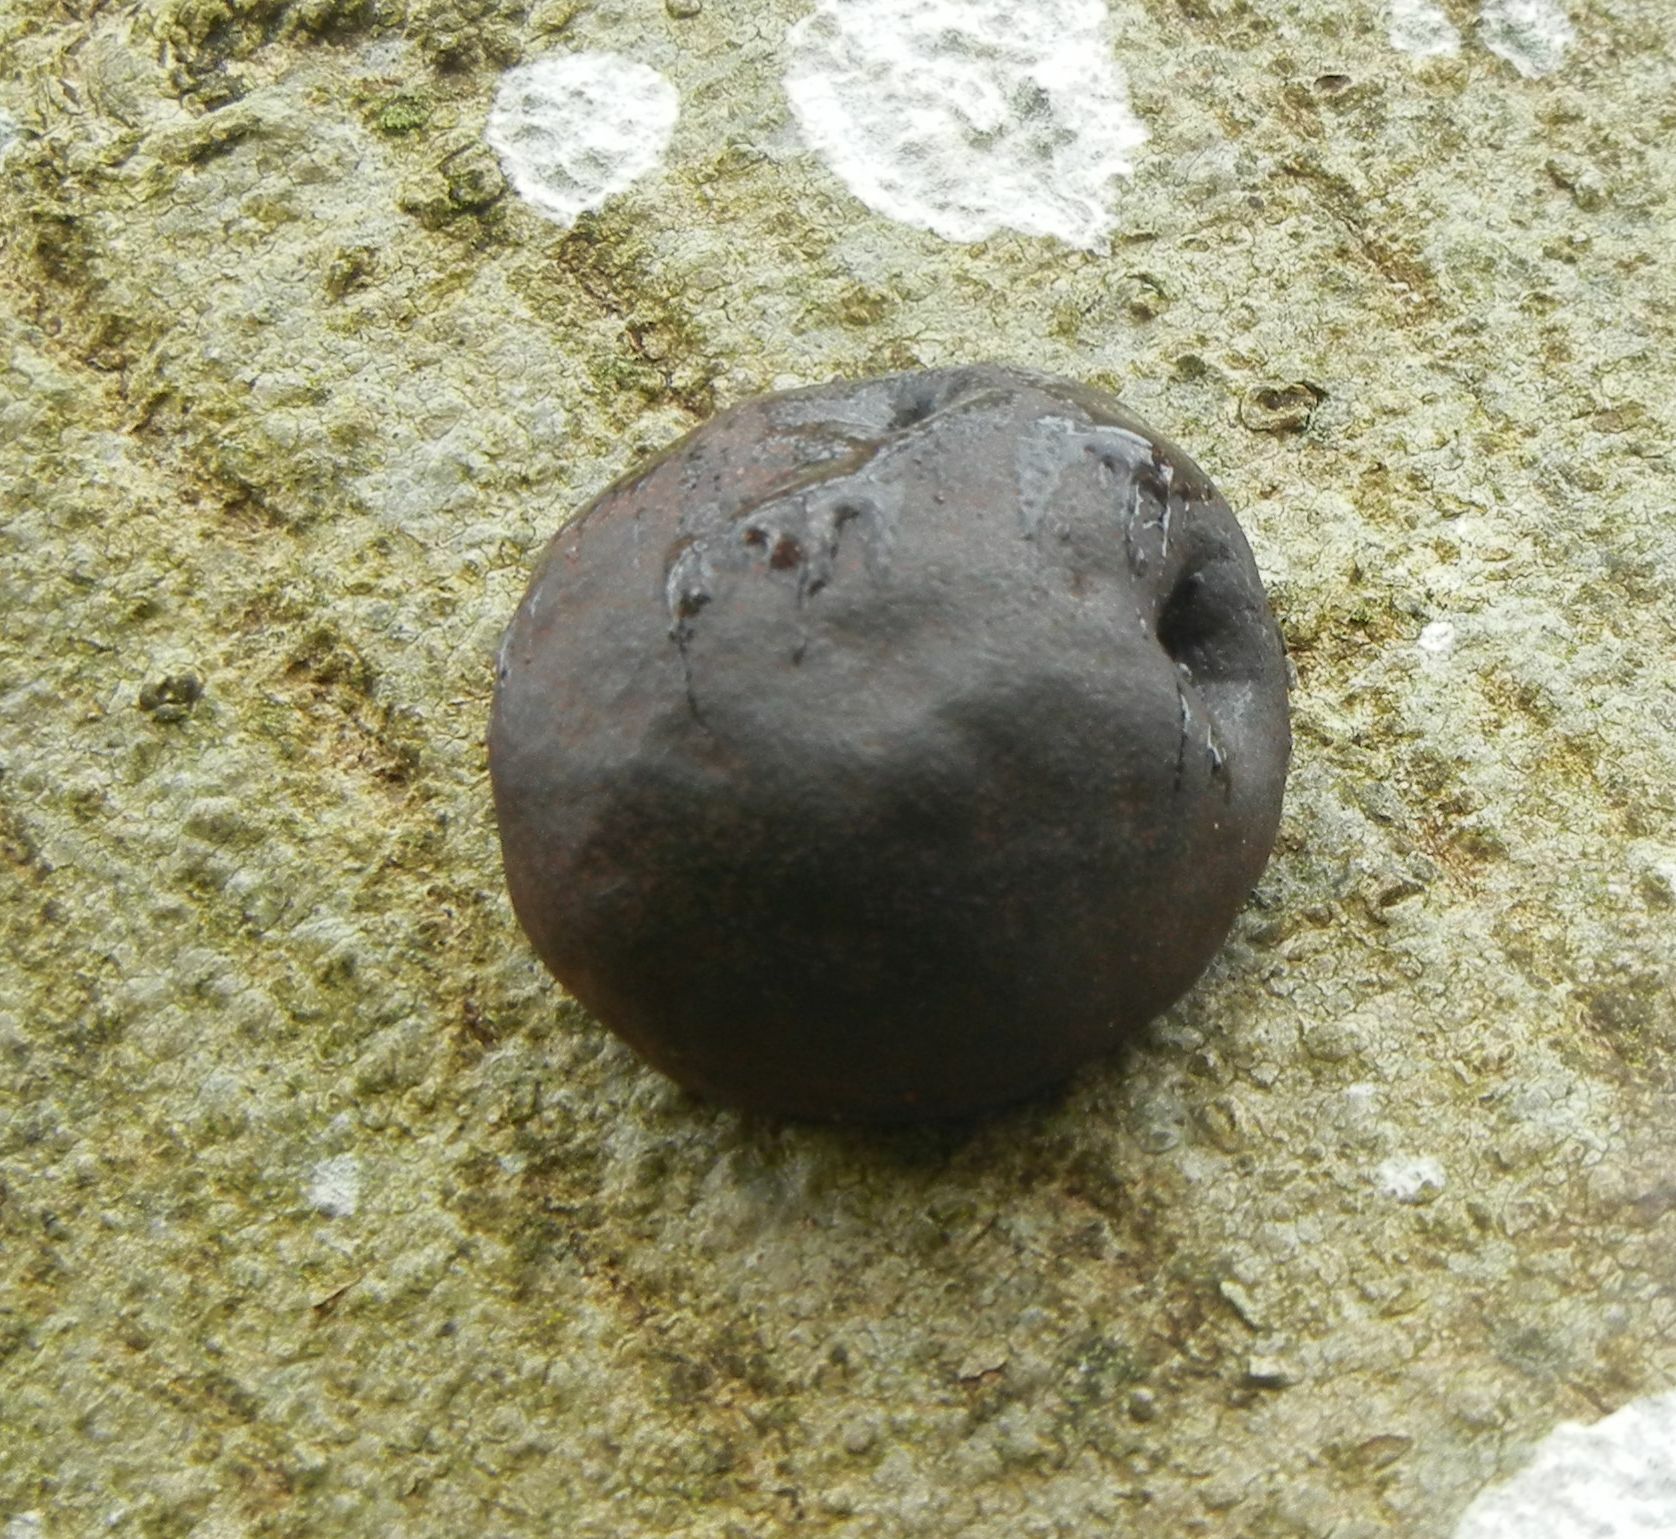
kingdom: Fungi
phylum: Ascomycota
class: Sordariomycetes
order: Xylariales
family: Hypoxylaceae
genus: Daldinia
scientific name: Daldinia concentrica
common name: Cramp balls
